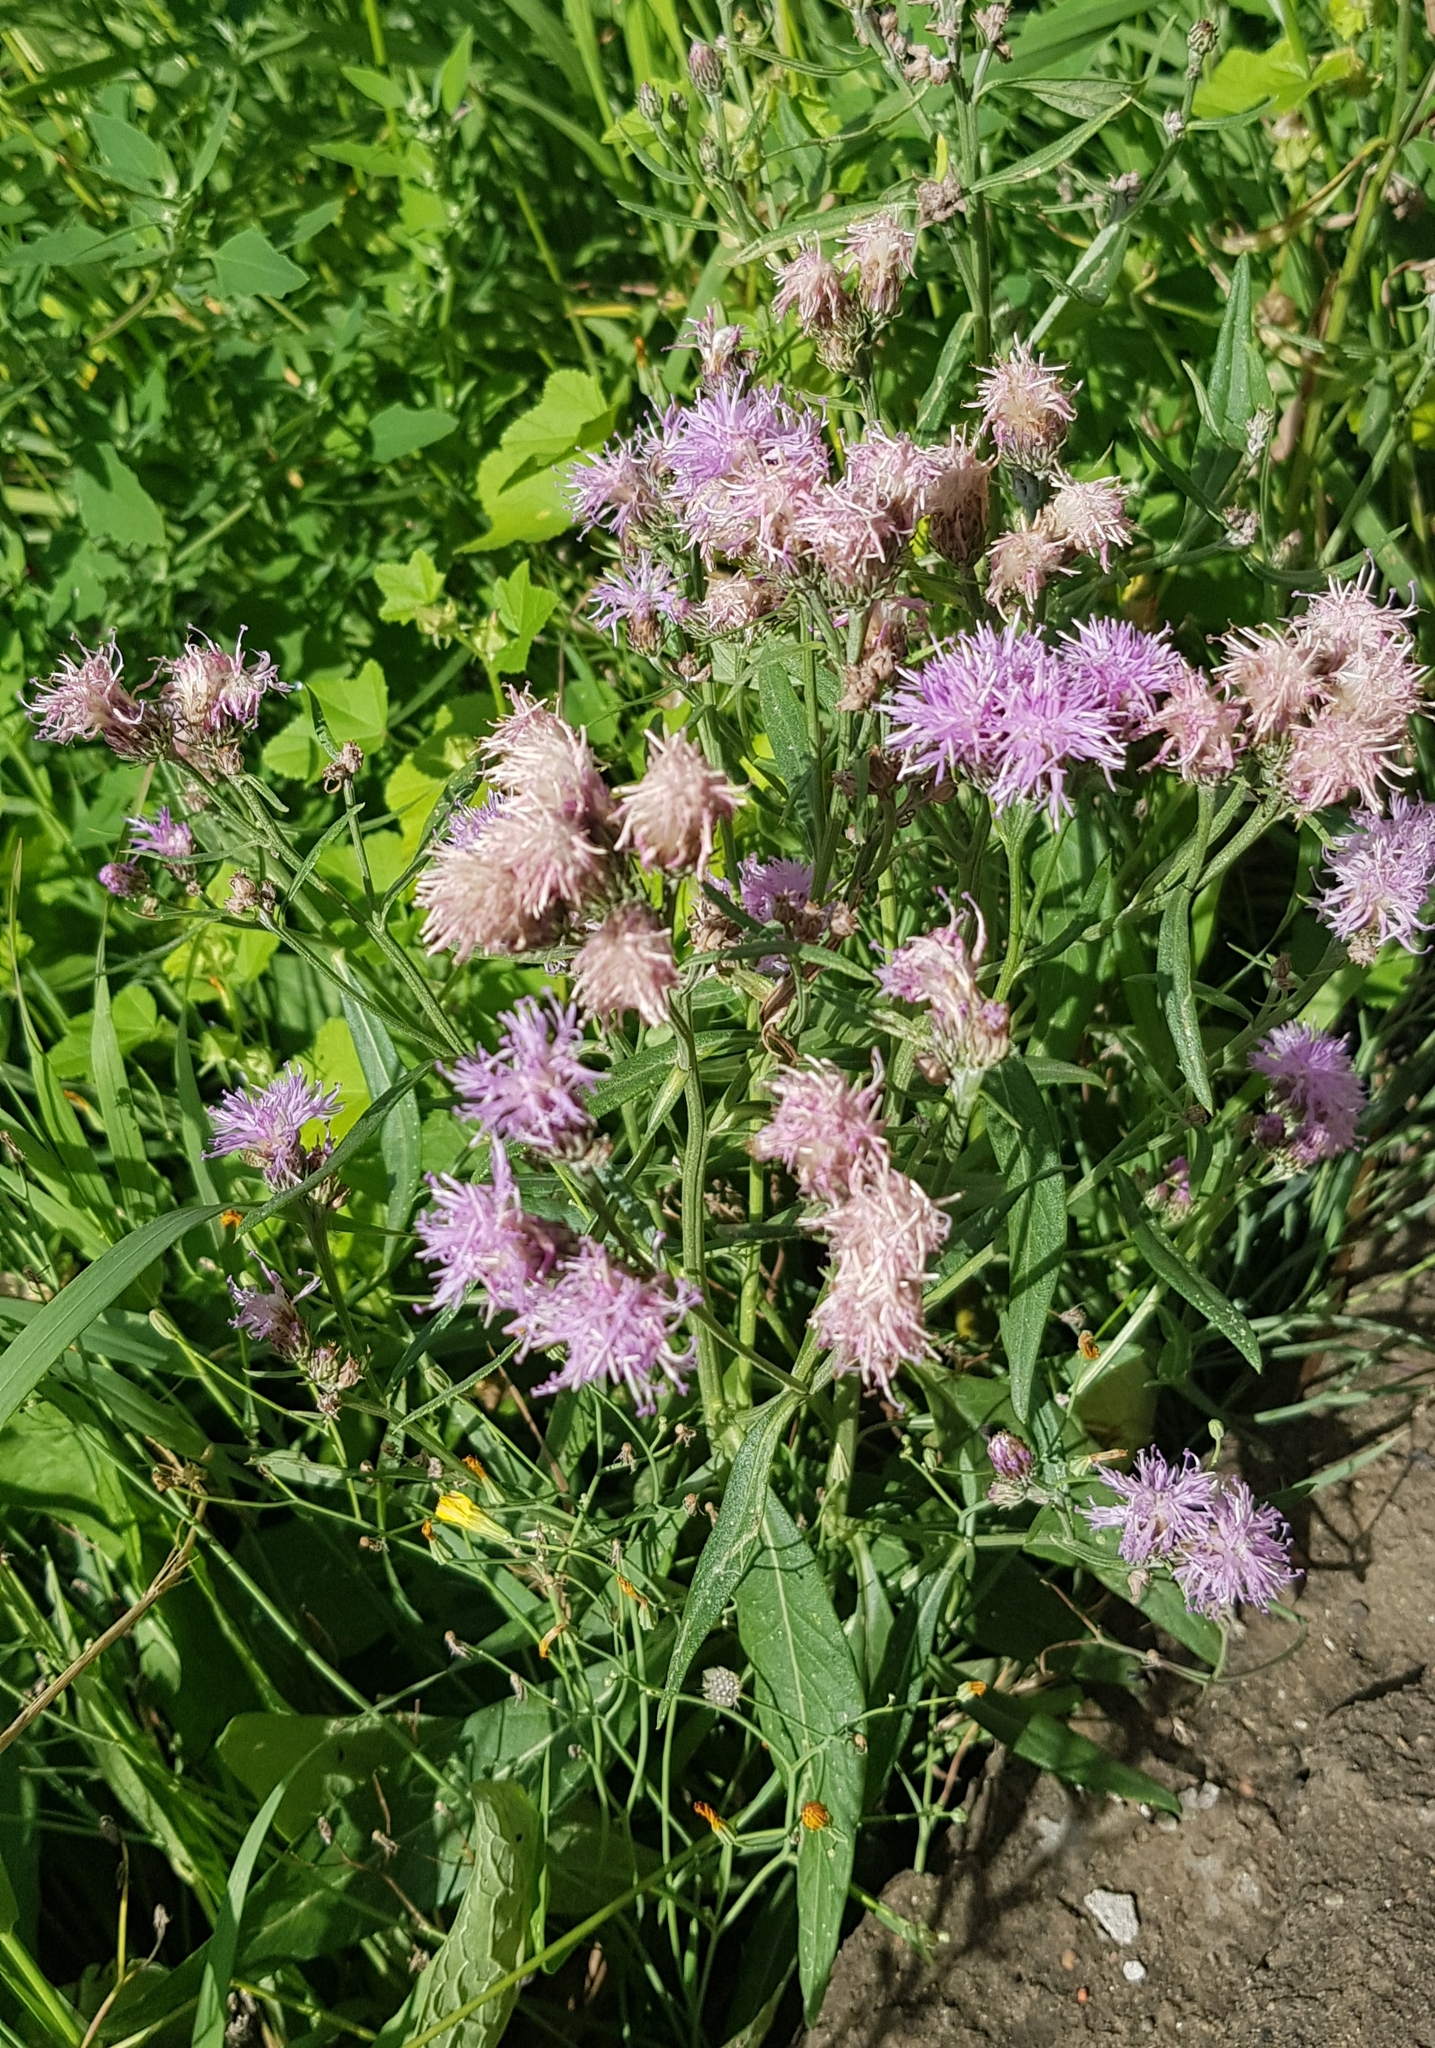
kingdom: Plantae
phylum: Tracheophyta
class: Magnoliopsida
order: Asterales
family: Asteraceae
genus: Saussurea
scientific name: Saussurea salicifolia
